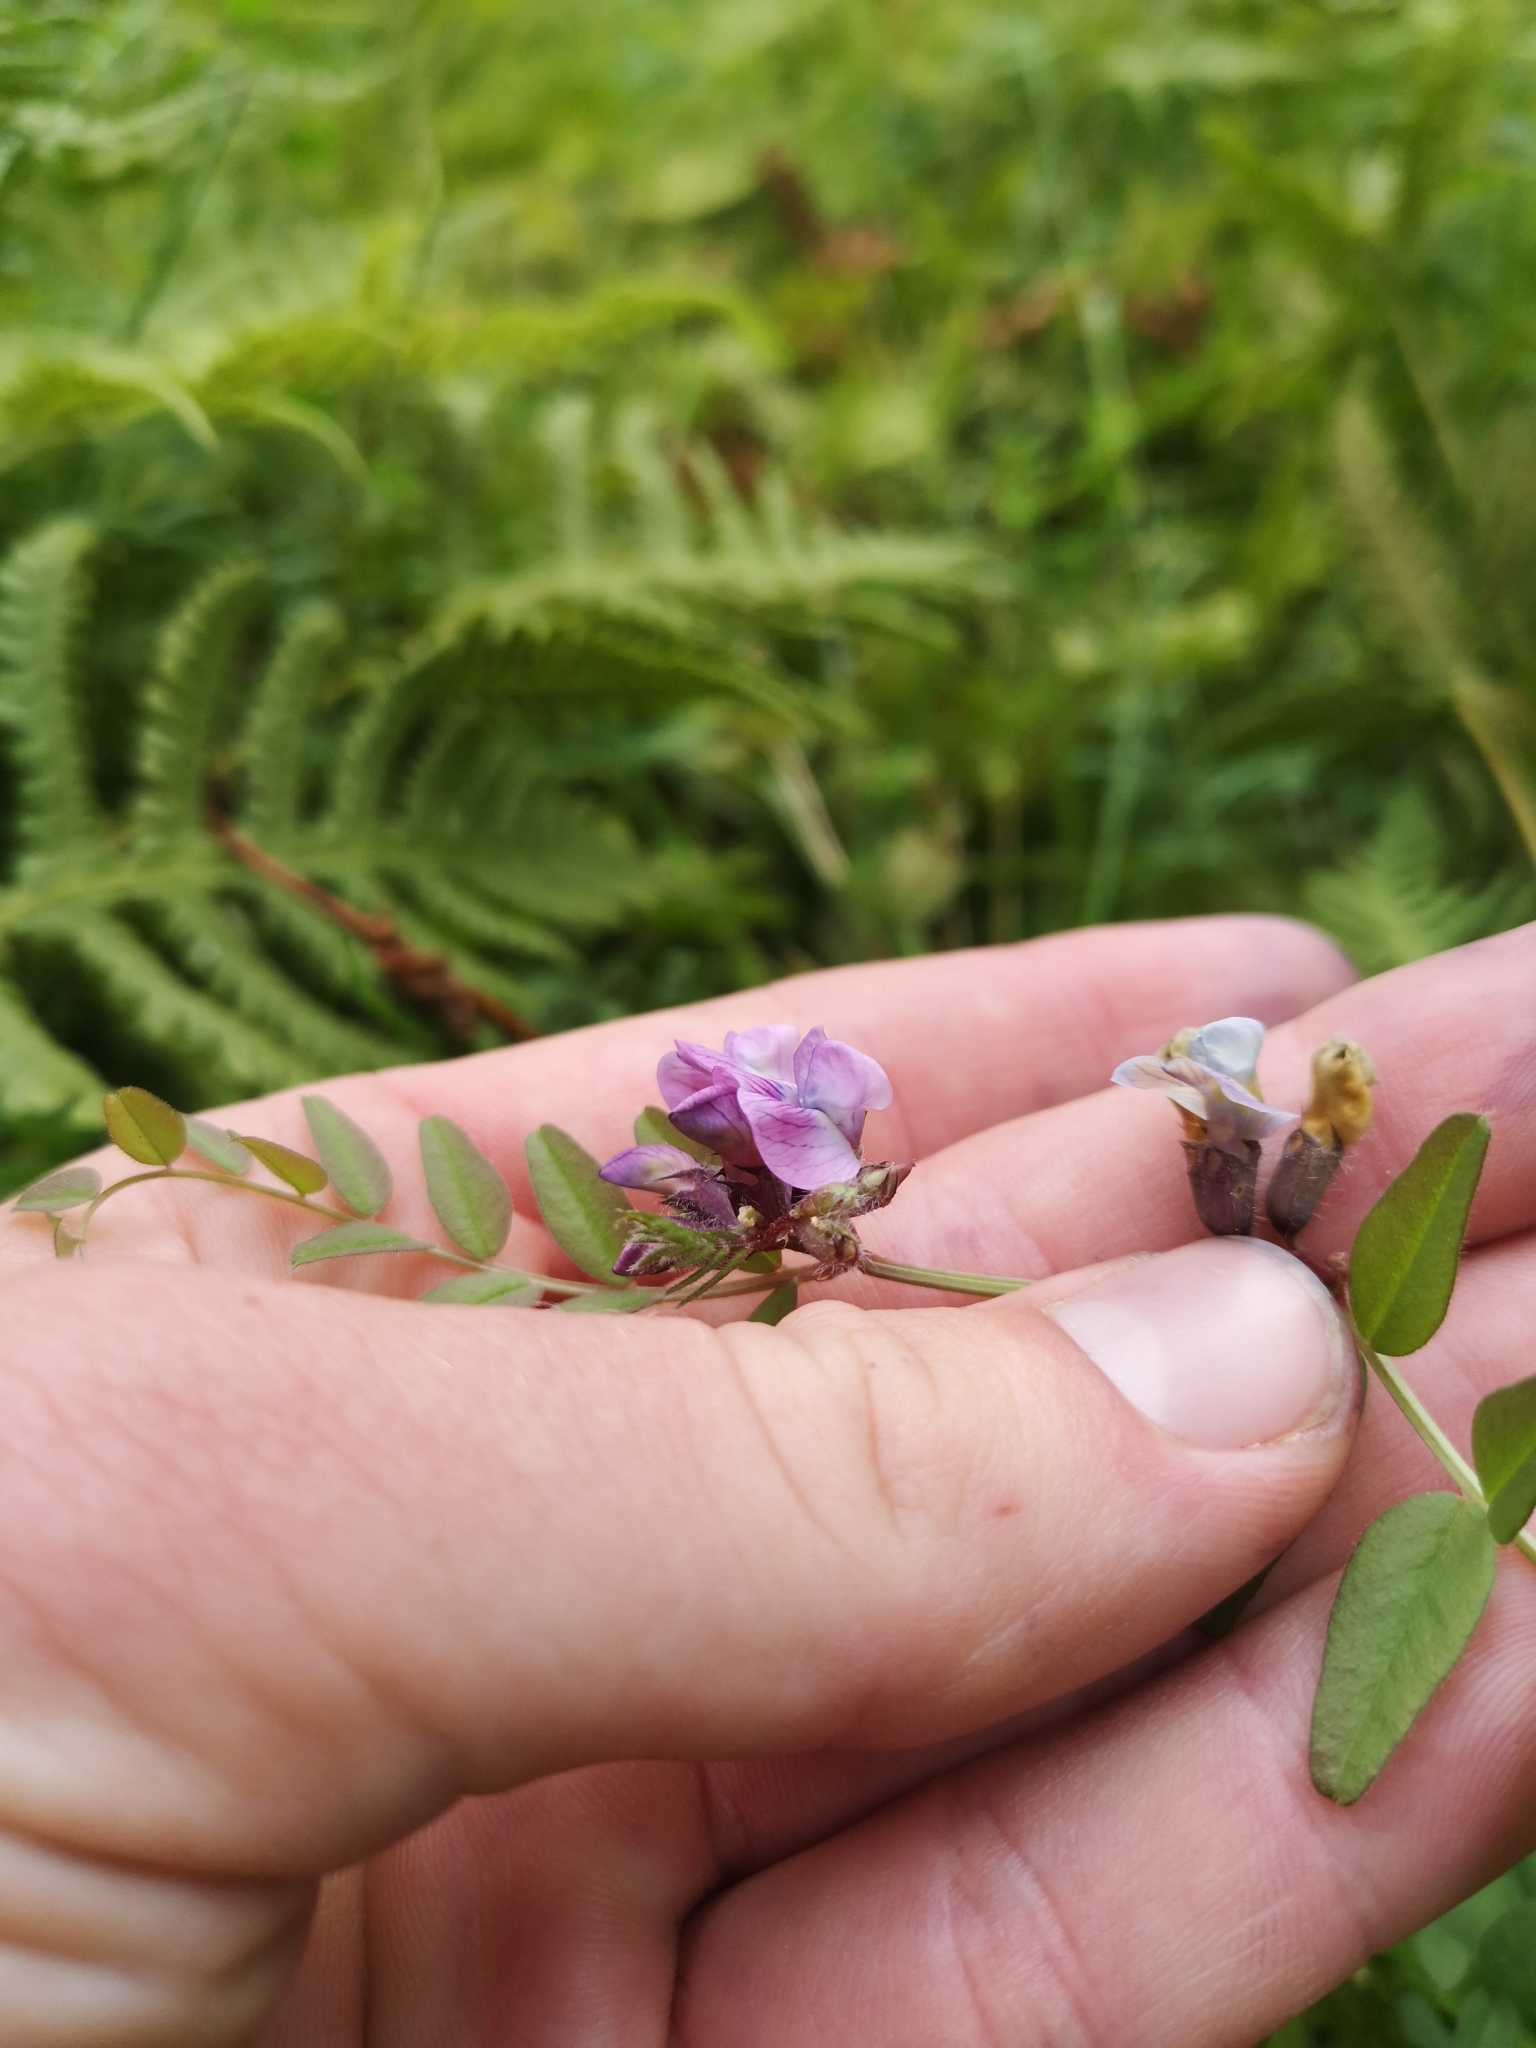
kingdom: Plantae
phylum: Tracheophyta
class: Magnoliopsida
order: Fabales
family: Fabaceae
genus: Vicia
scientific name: Vicia sepium
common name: Bush vetch
